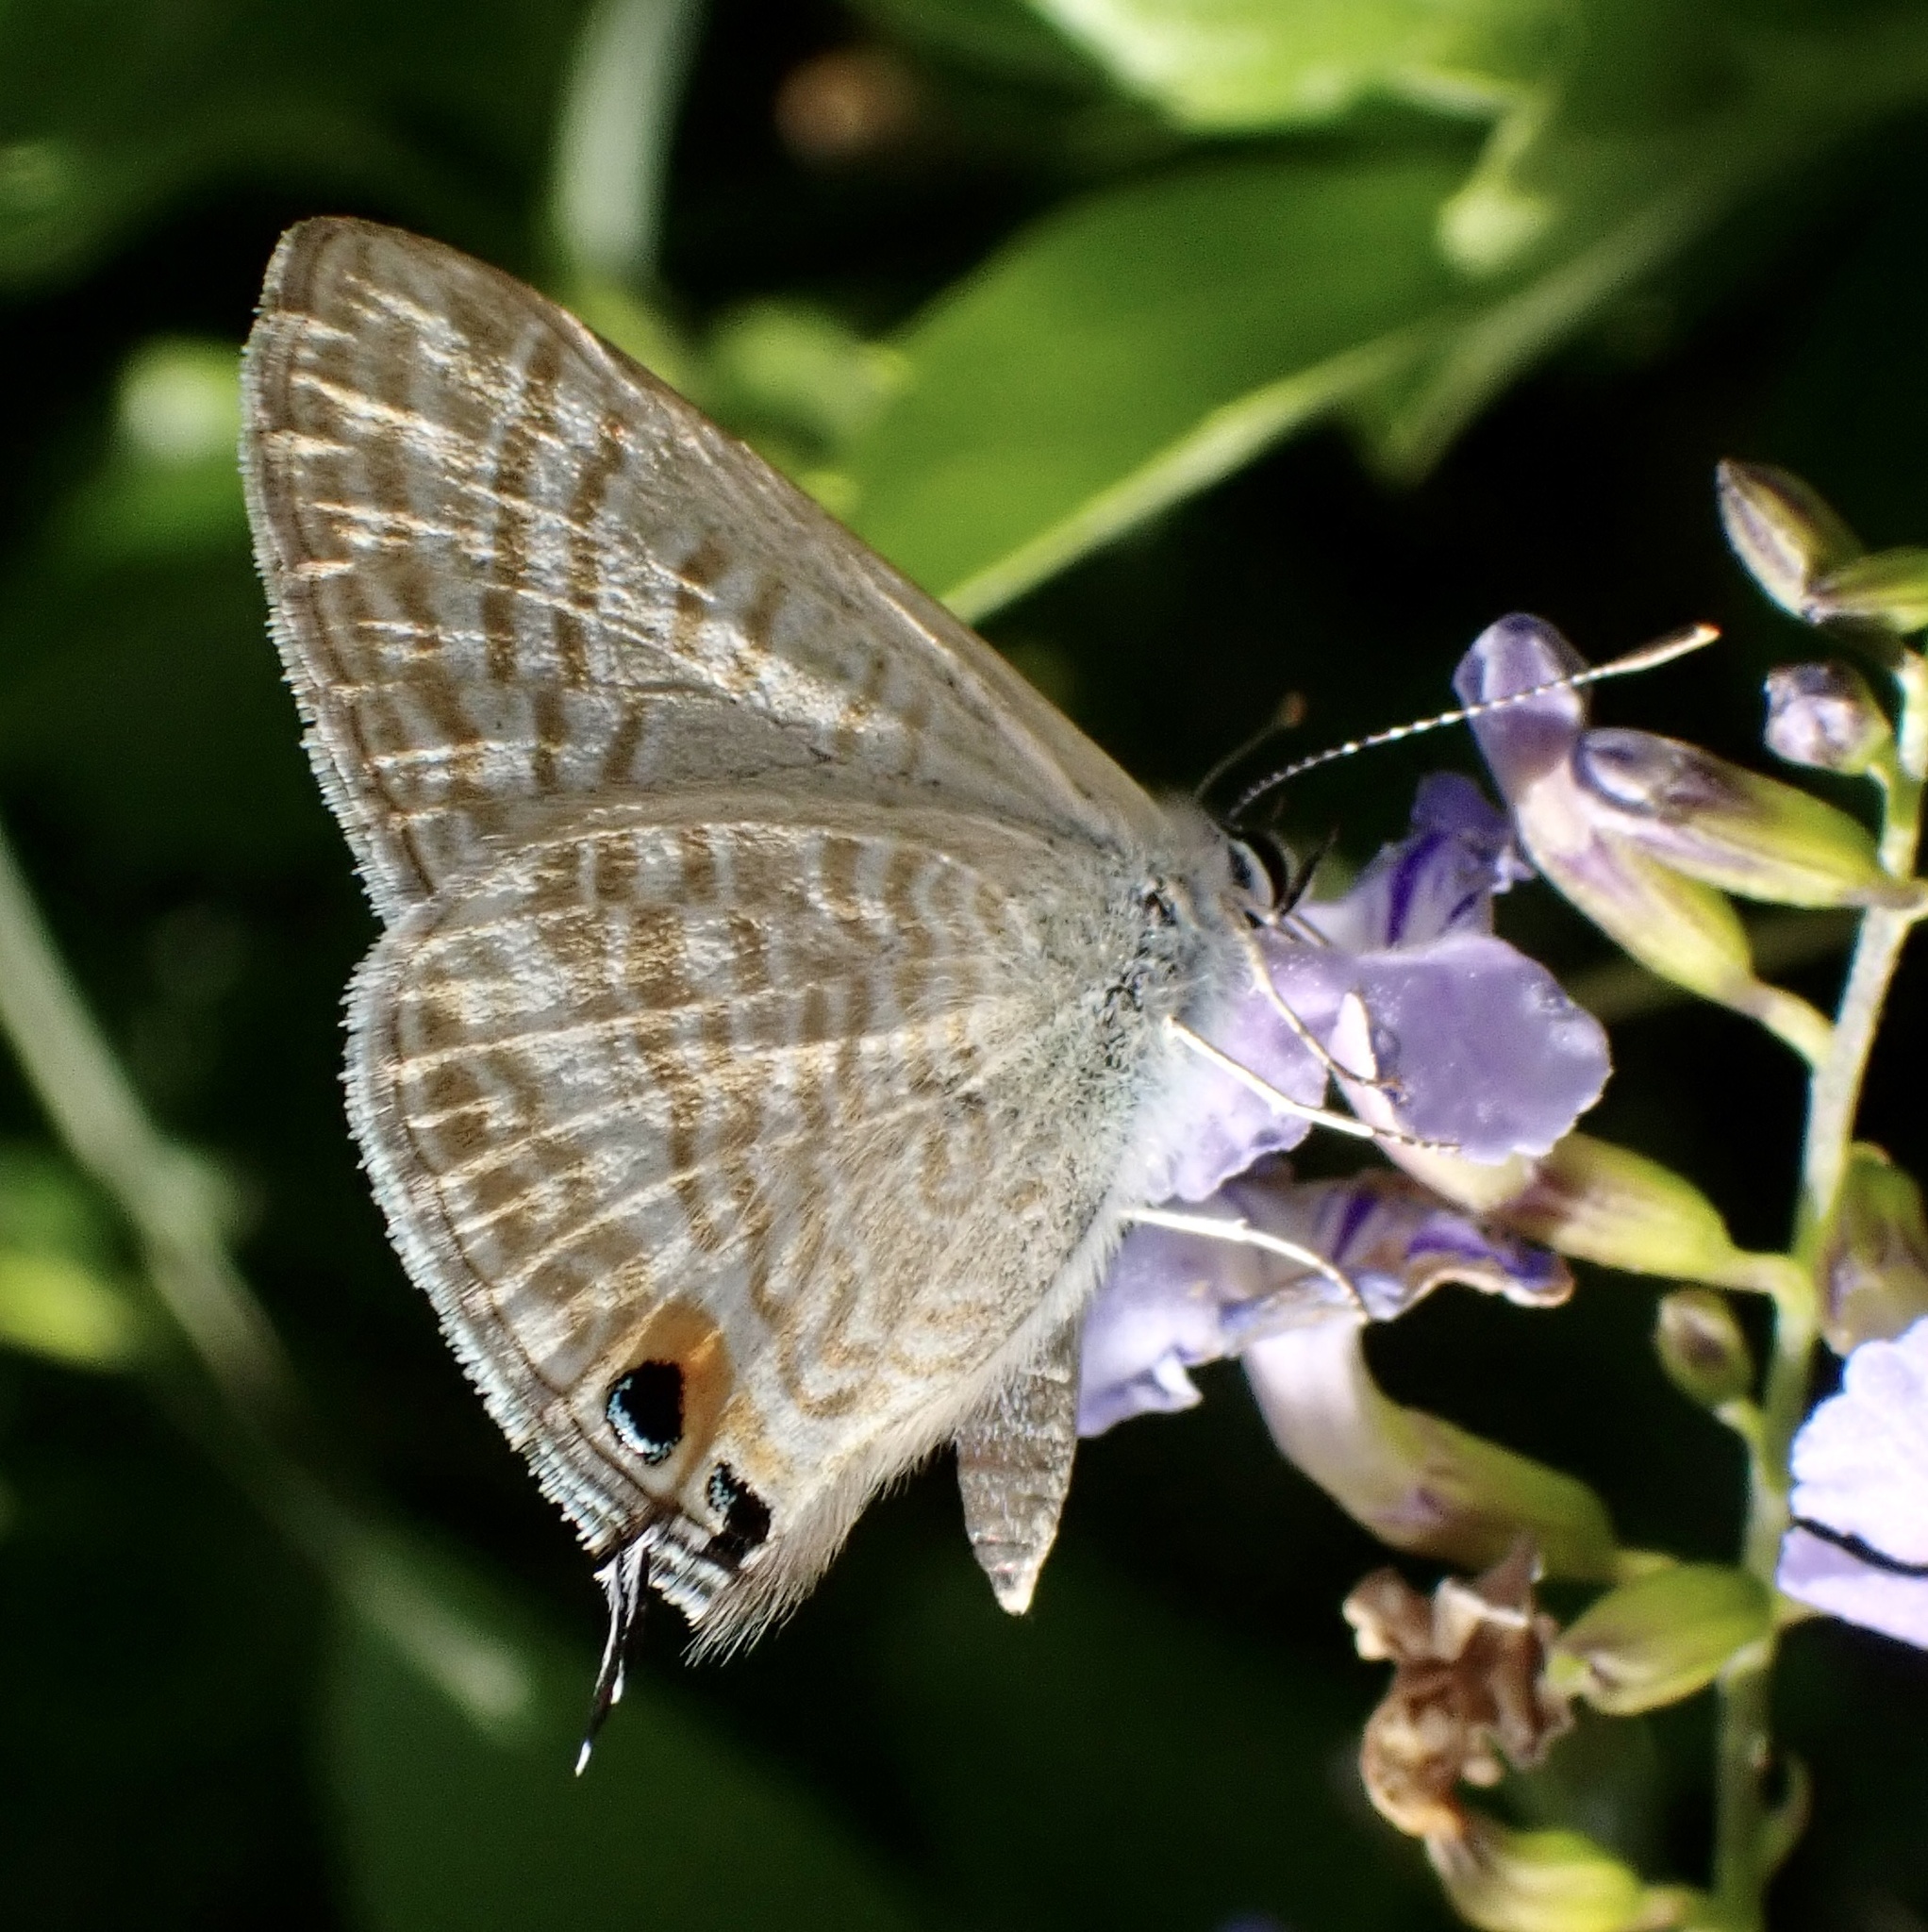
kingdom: Animalia
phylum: Arthropoda
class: Insecta
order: Lepidoptera
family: Lycaenidae
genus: Lampides
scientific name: Lampides boeticus
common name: Long-tailed blue
